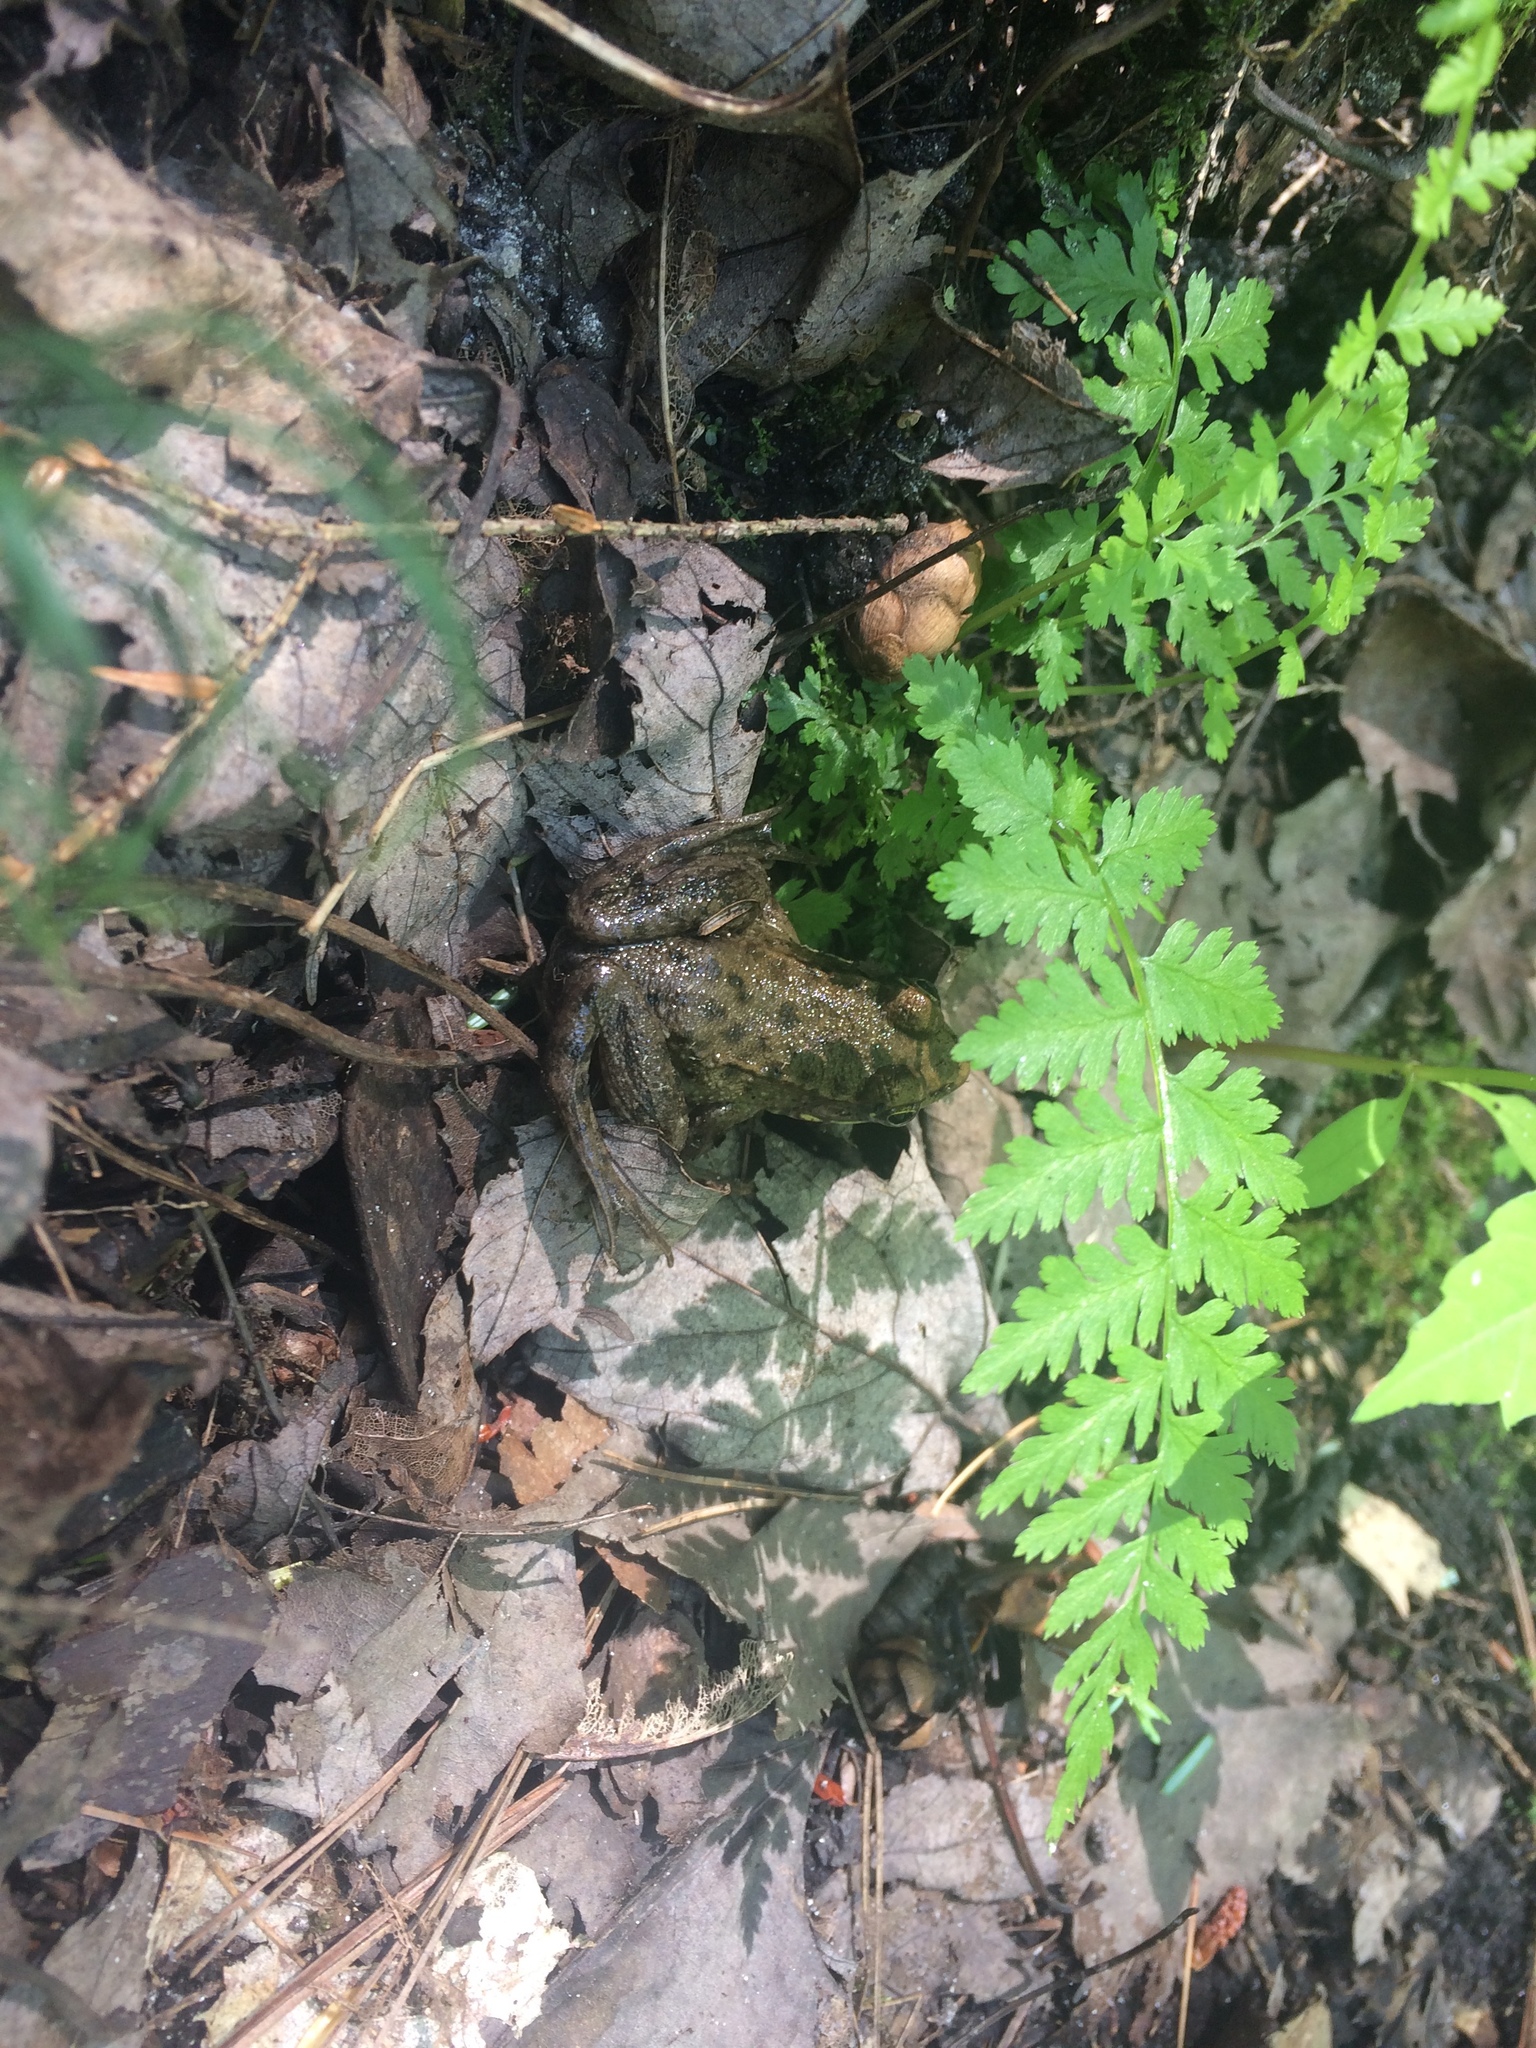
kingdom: Animalia
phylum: Chordata
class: Amphibia
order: Anura
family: Ranidae
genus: Lithobates
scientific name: Lithobates clamitans
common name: Green frog
